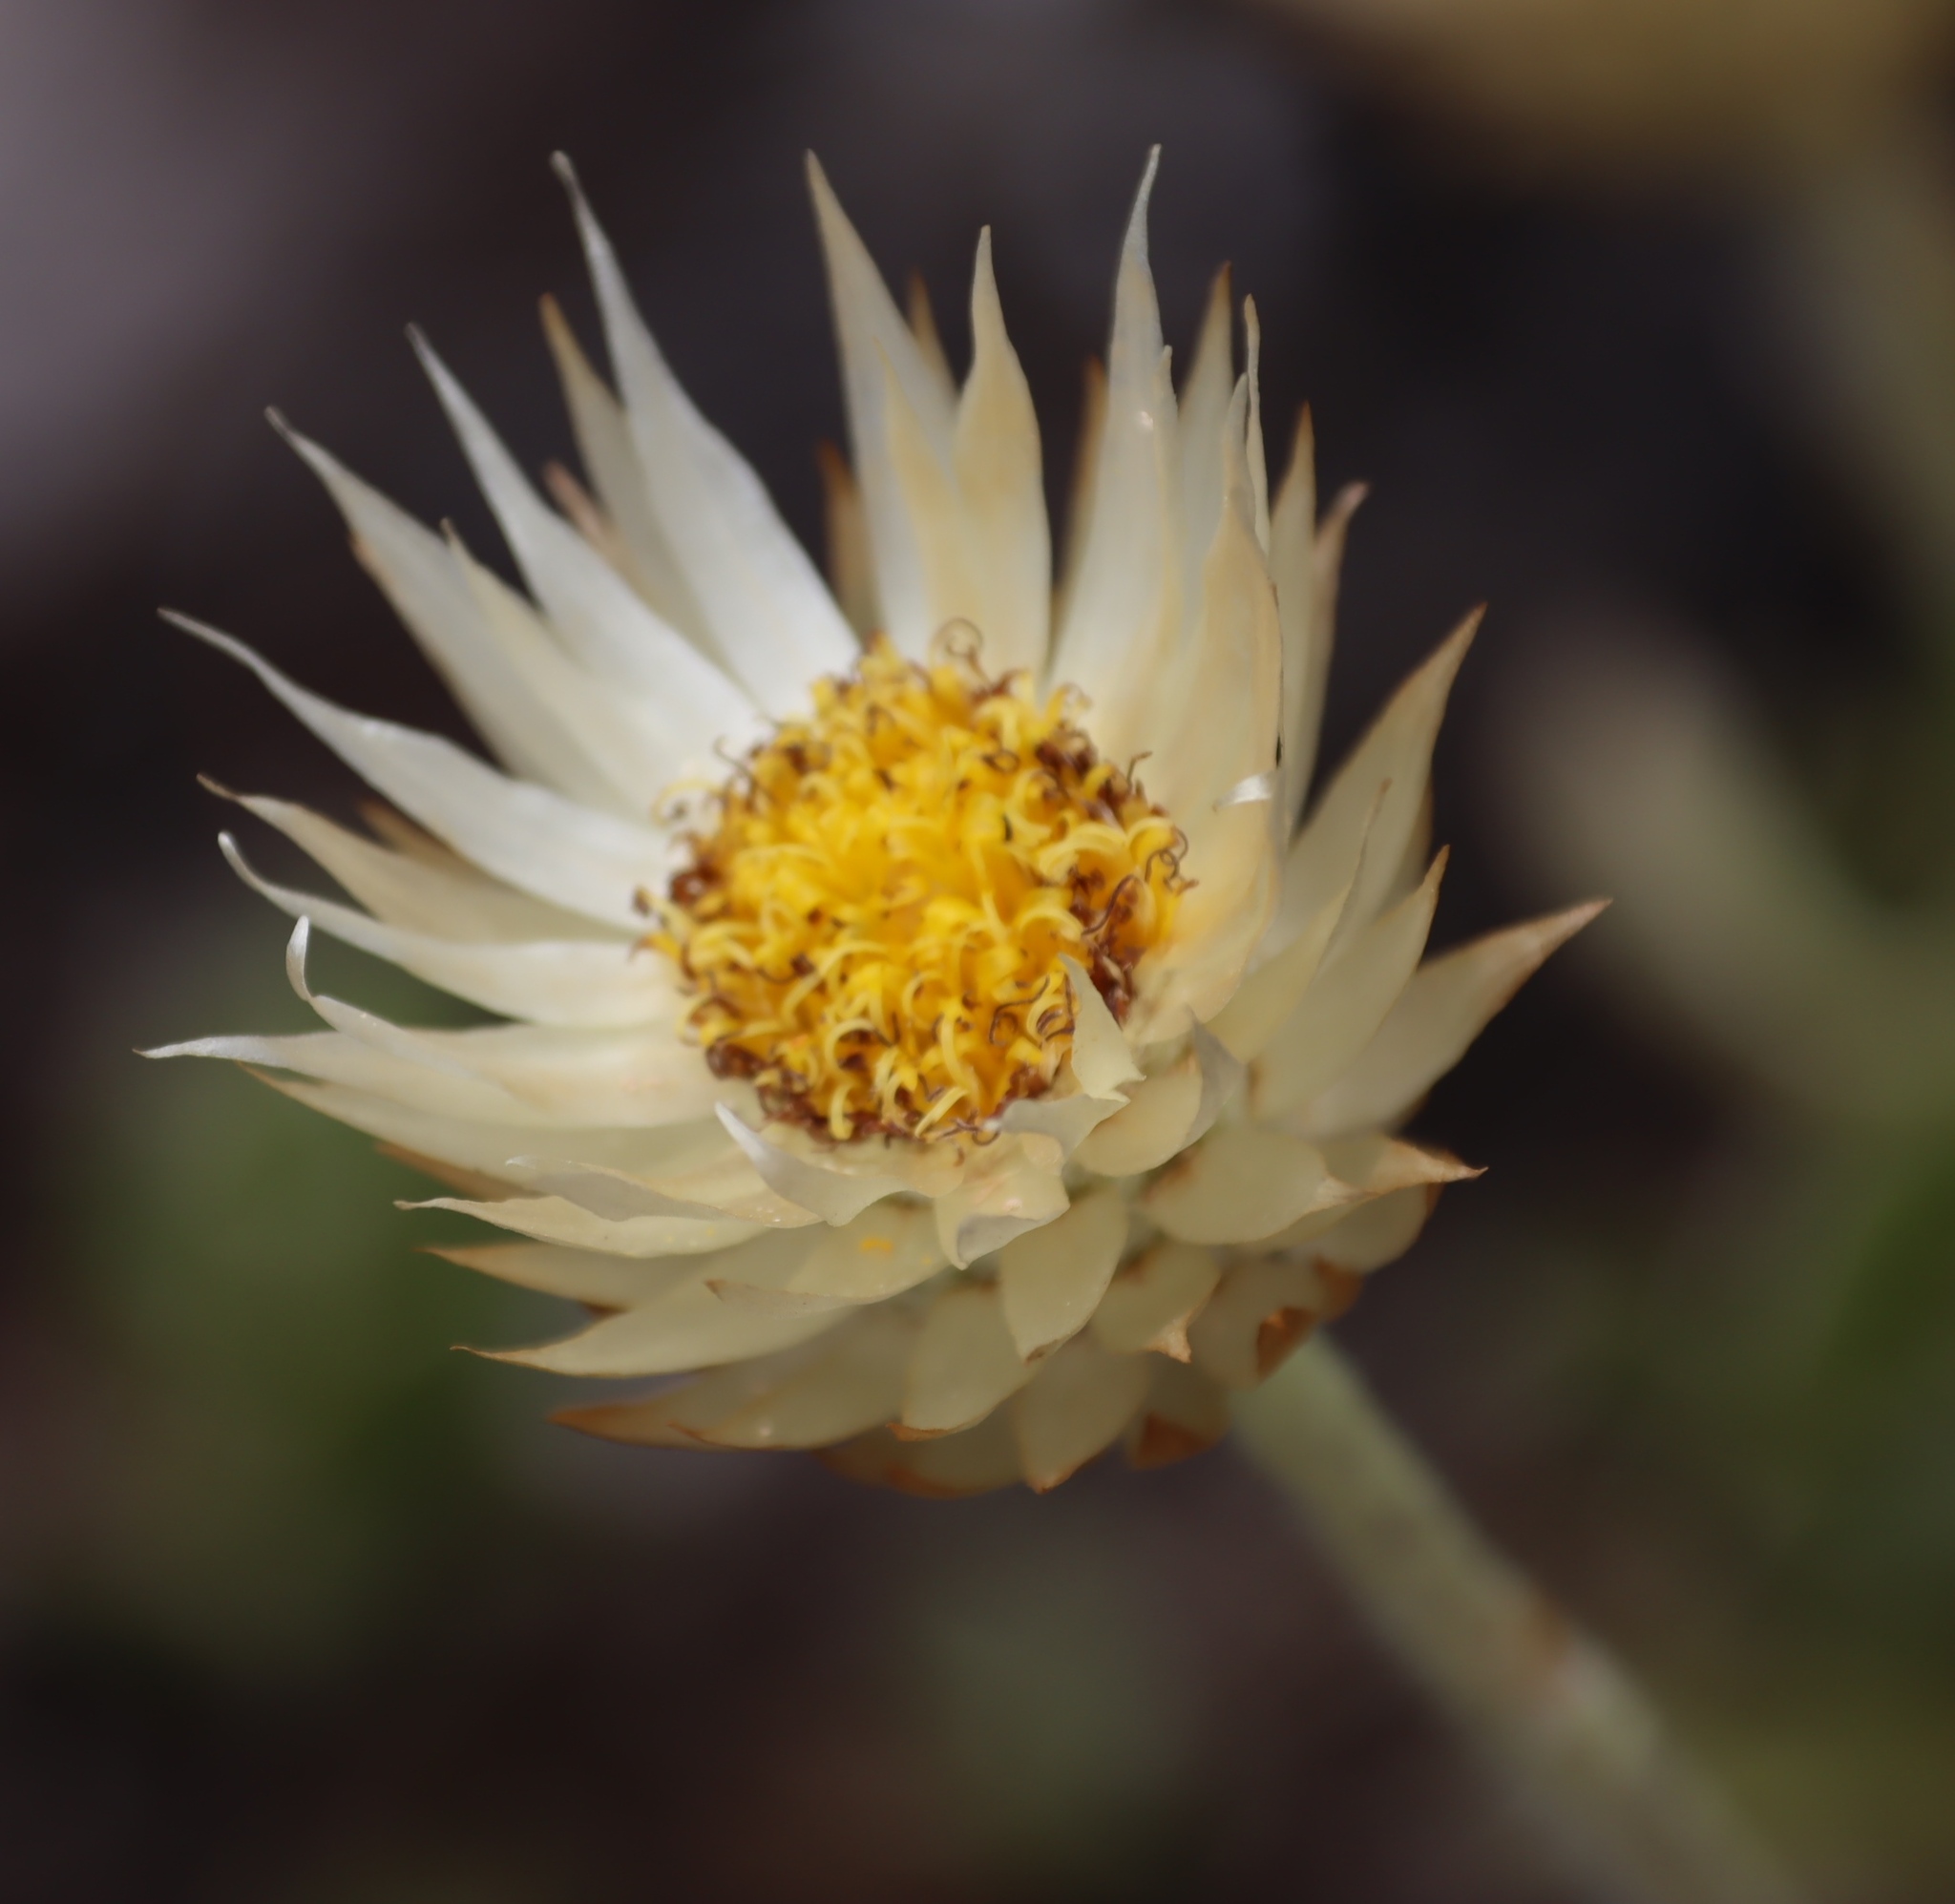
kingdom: Plantae
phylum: Tracheophyta
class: Magnoliopsida
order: Asterales
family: Asteraceae
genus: Syncarpha
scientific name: Syncarpha speciosissima
